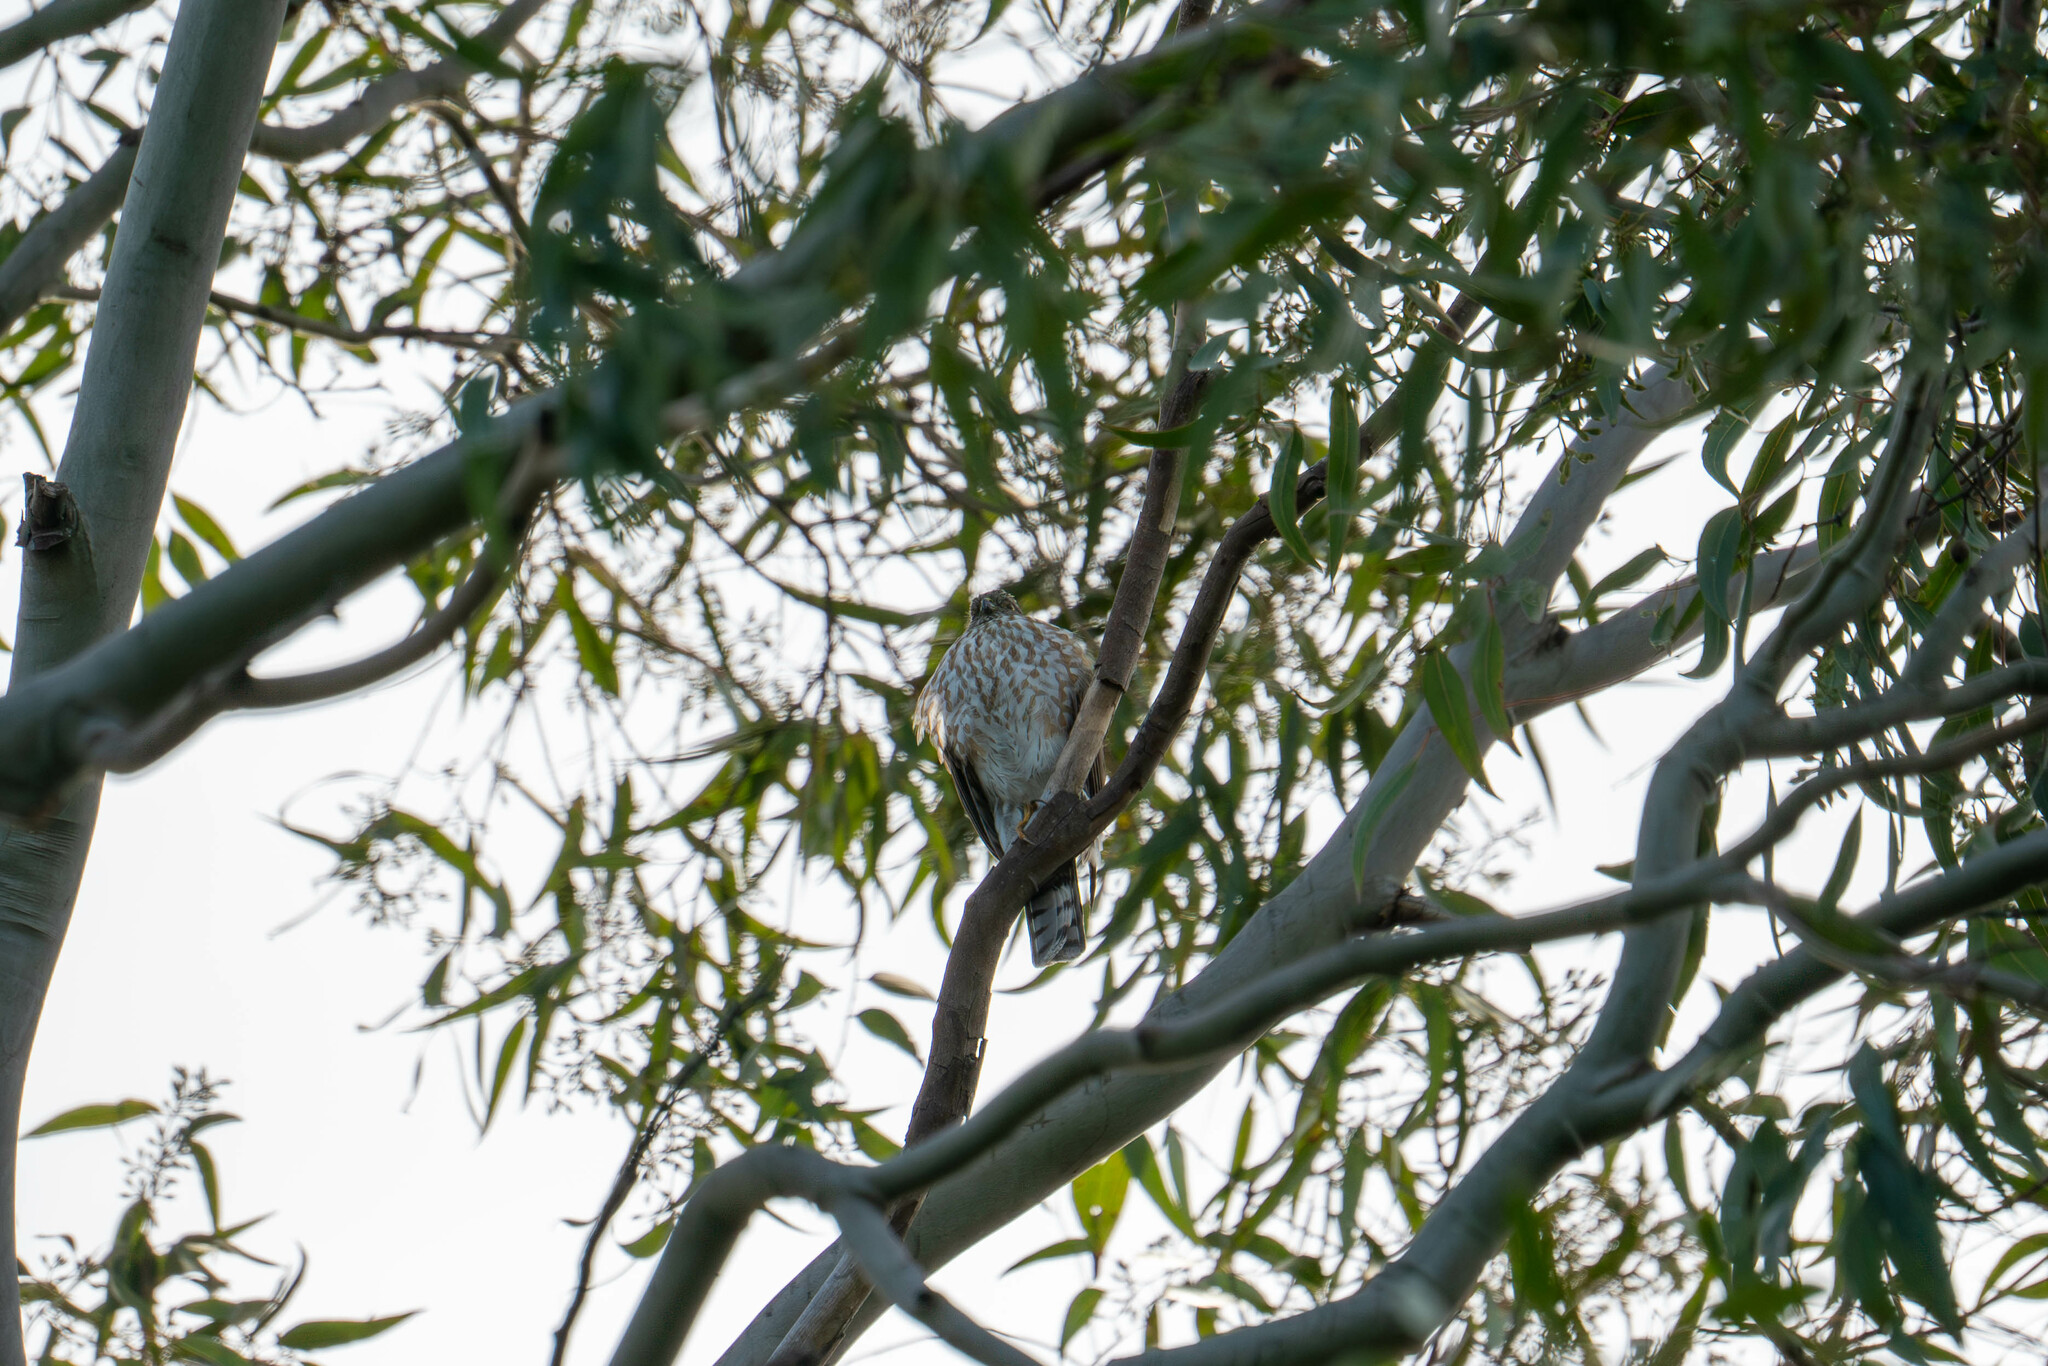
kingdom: Animalia
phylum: Chordata
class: Aves
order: Accipitriformes
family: Accipitridae
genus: Accipiter
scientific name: Accipiter striatus
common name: Sharp-shinned hawk
